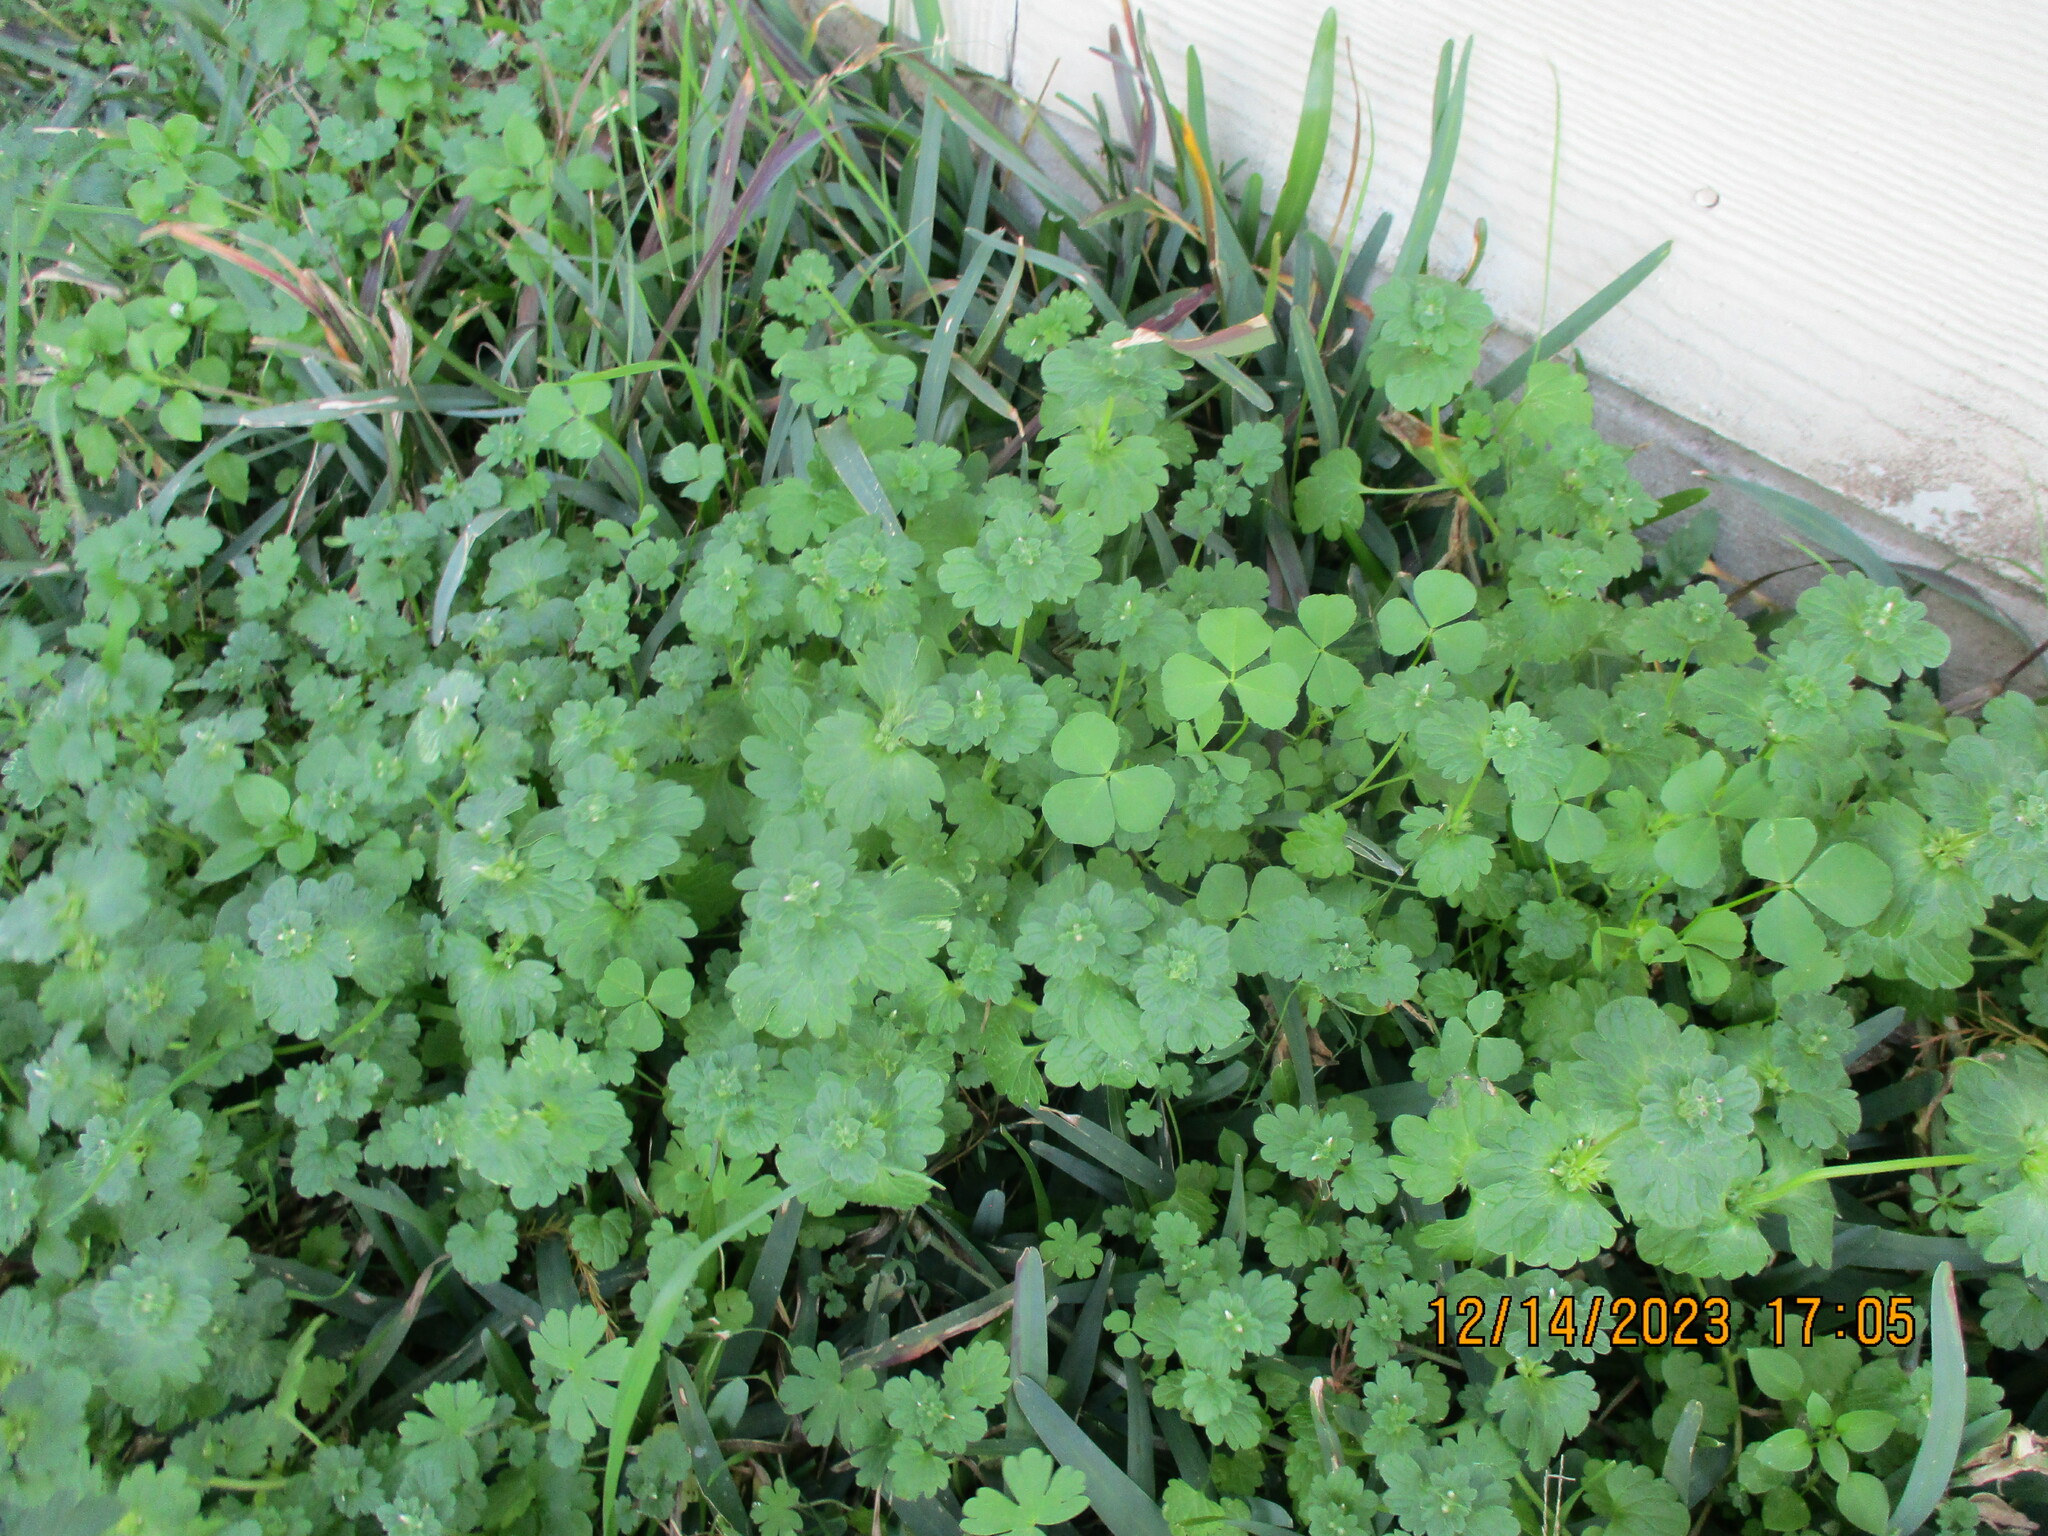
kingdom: Plantae
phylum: Tracheophyta
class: Magnoliopsida
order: Lamiales
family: Lamiaceae
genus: Lamium
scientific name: Lamium amplexicaule
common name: Henbit dead-nettle
